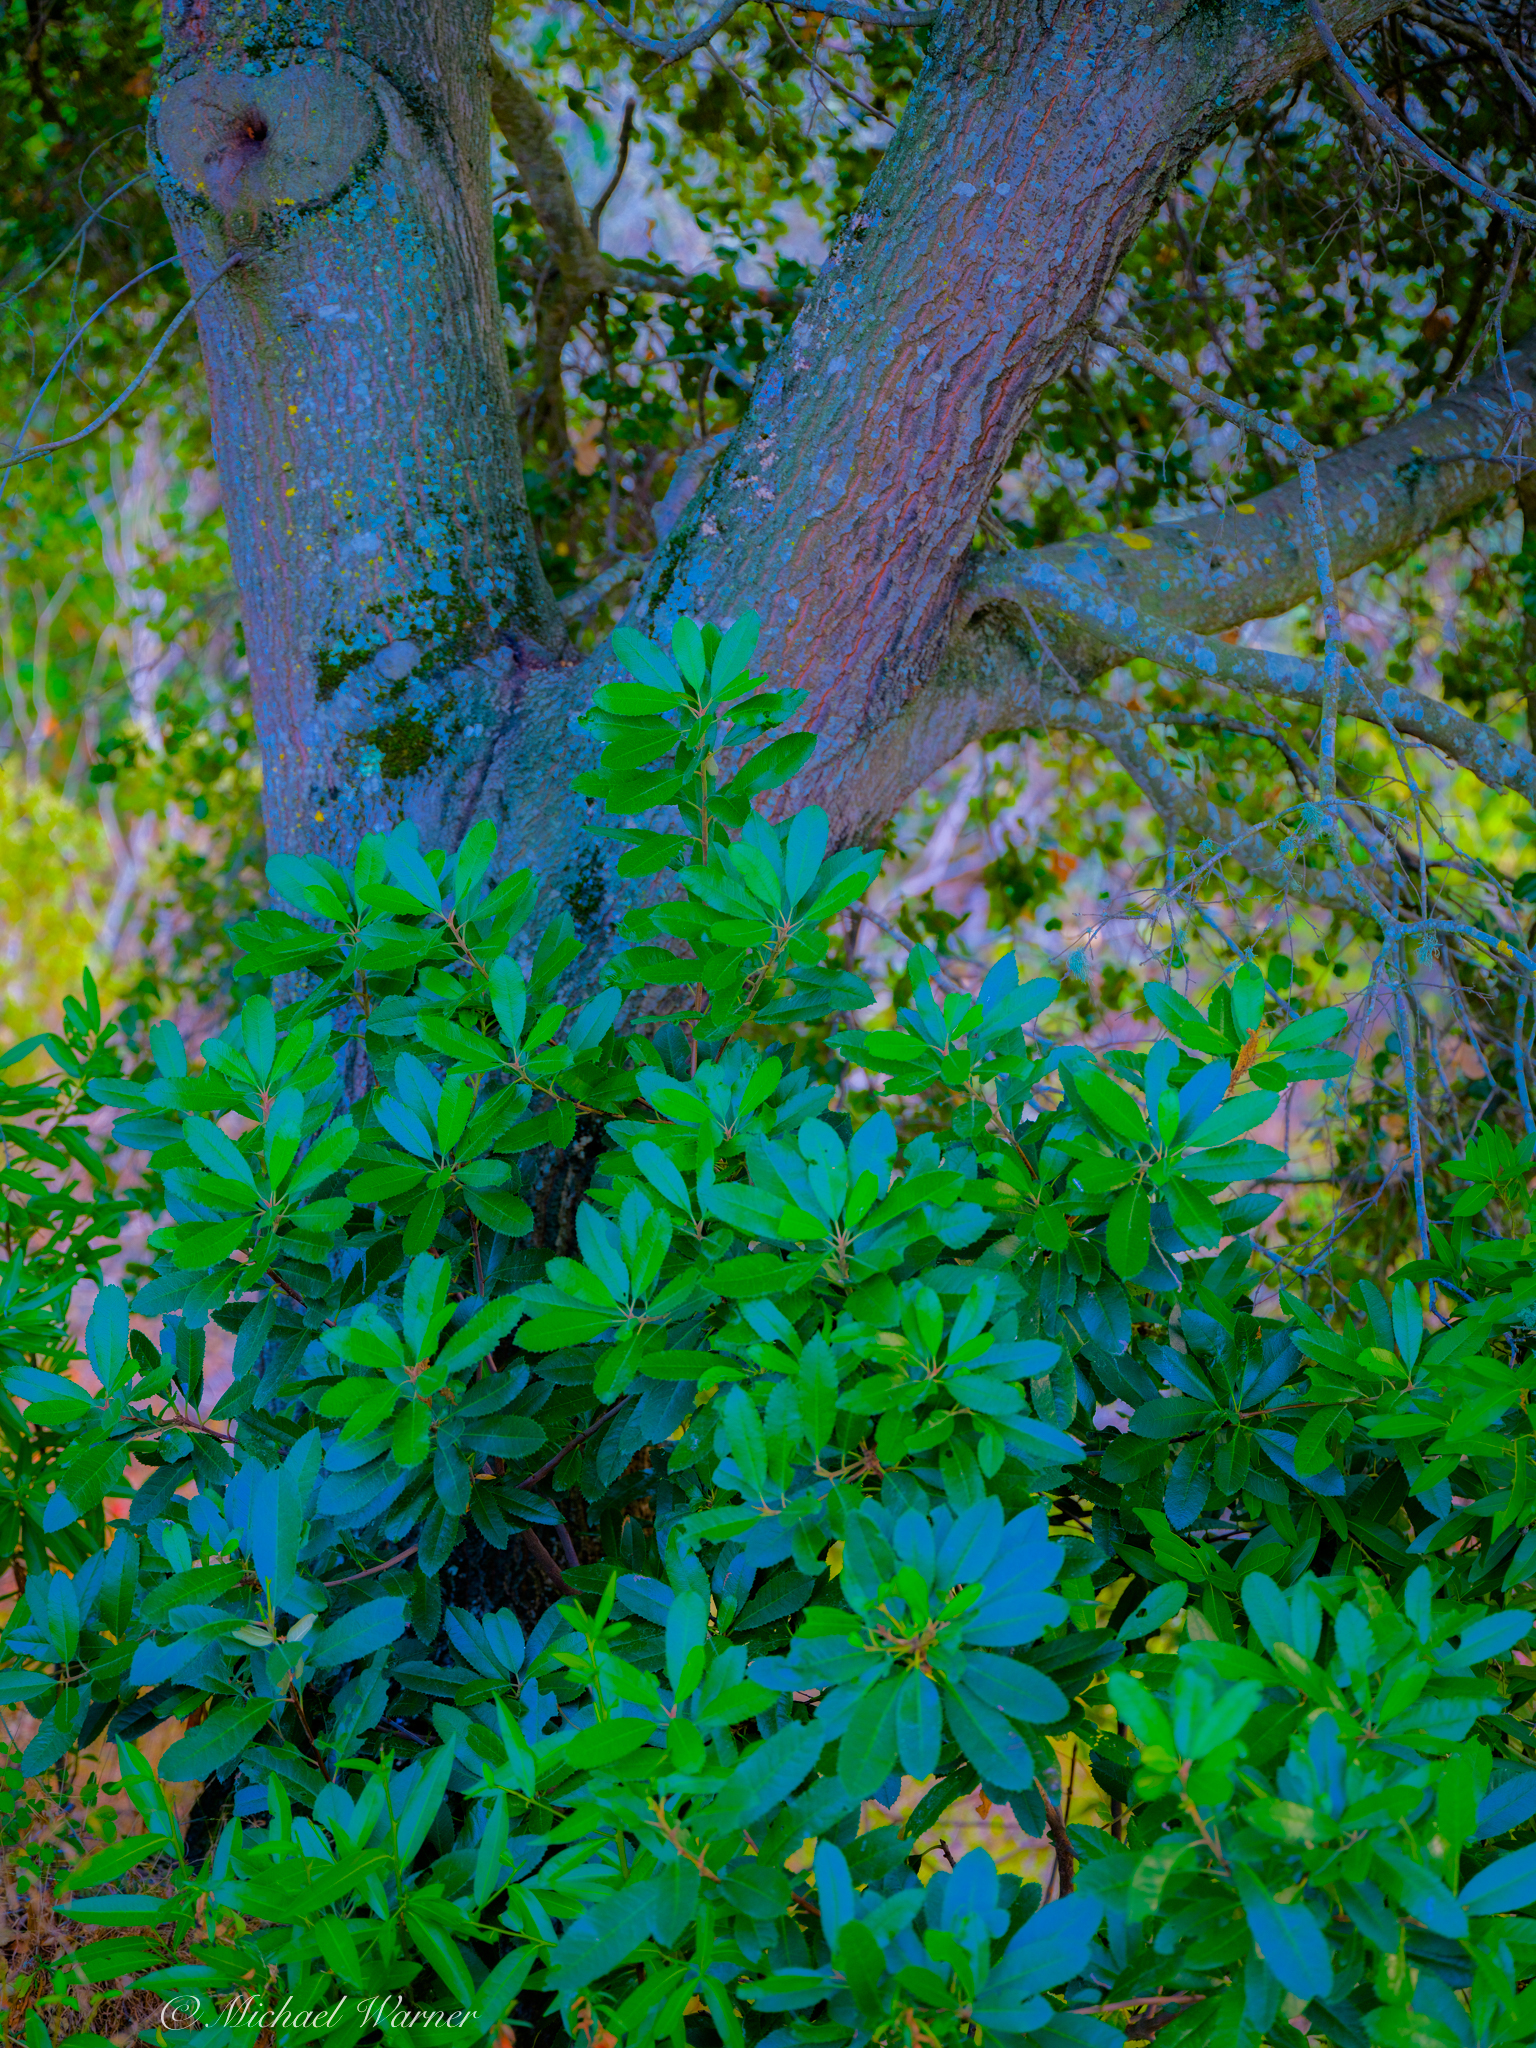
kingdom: Plantae
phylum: Tracheophyta
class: Magnoliopsida
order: Rosales
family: Rosaceae
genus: Heteromeles
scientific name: Heteromeles arbutifolia
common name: California-holly
